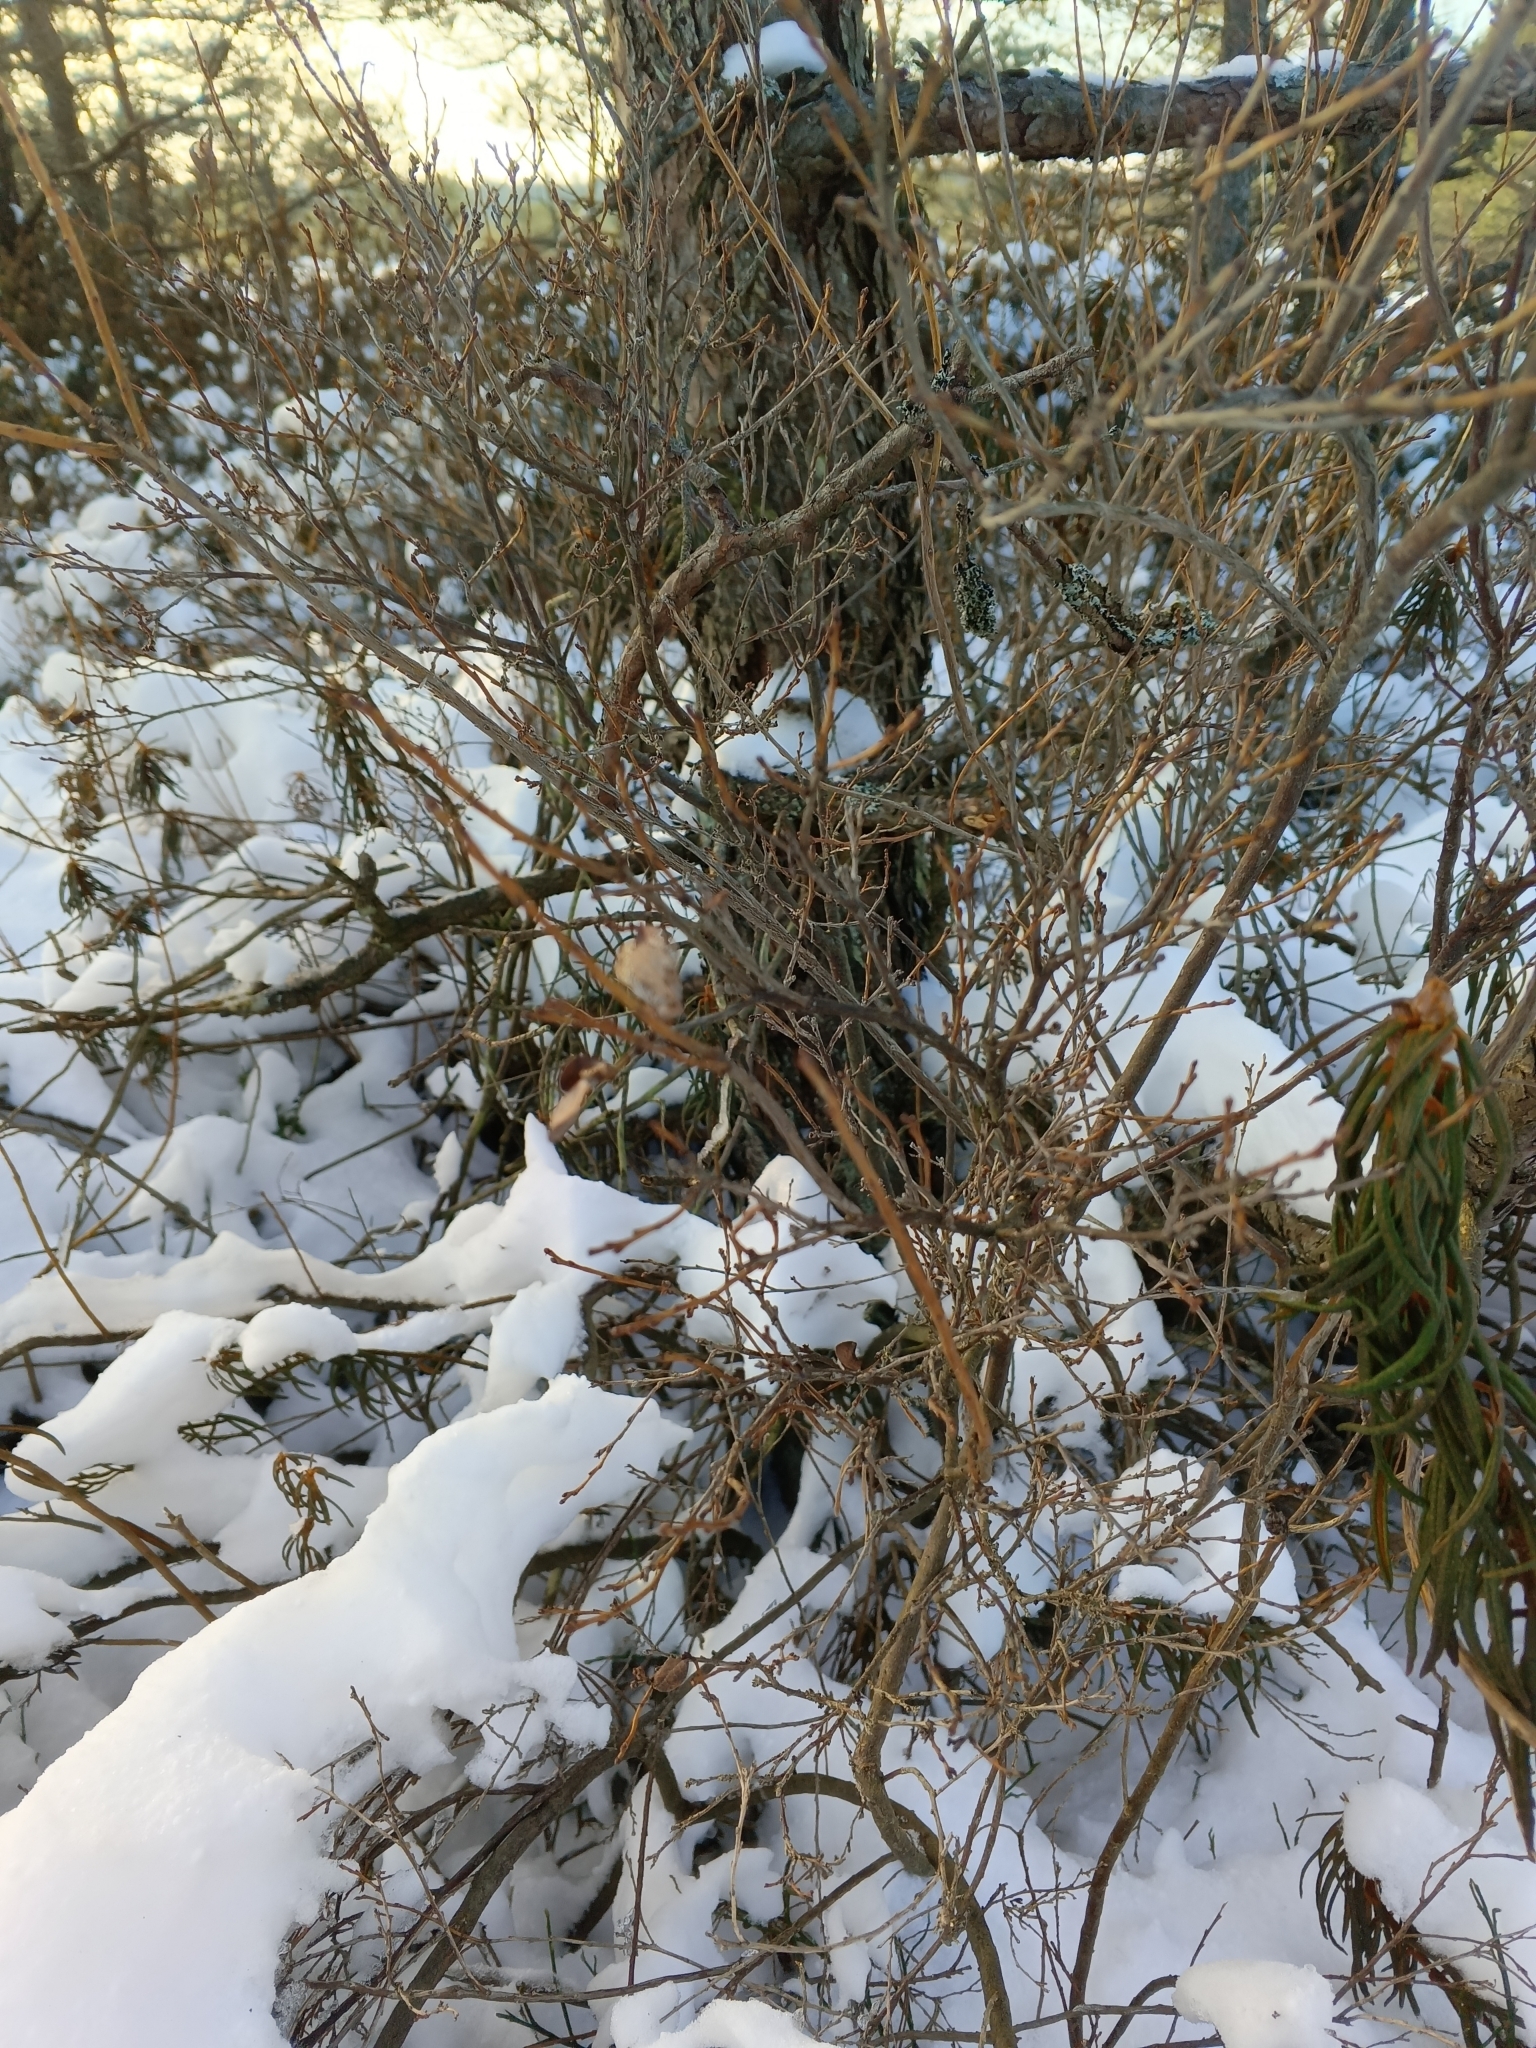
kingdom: Plantae
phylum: Tracheophyta
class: Magnoliopsida
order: Ericales
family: Ericaceae
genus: Vaccinium
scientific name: Vaccinium uliginosum
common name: Bog bilberry
